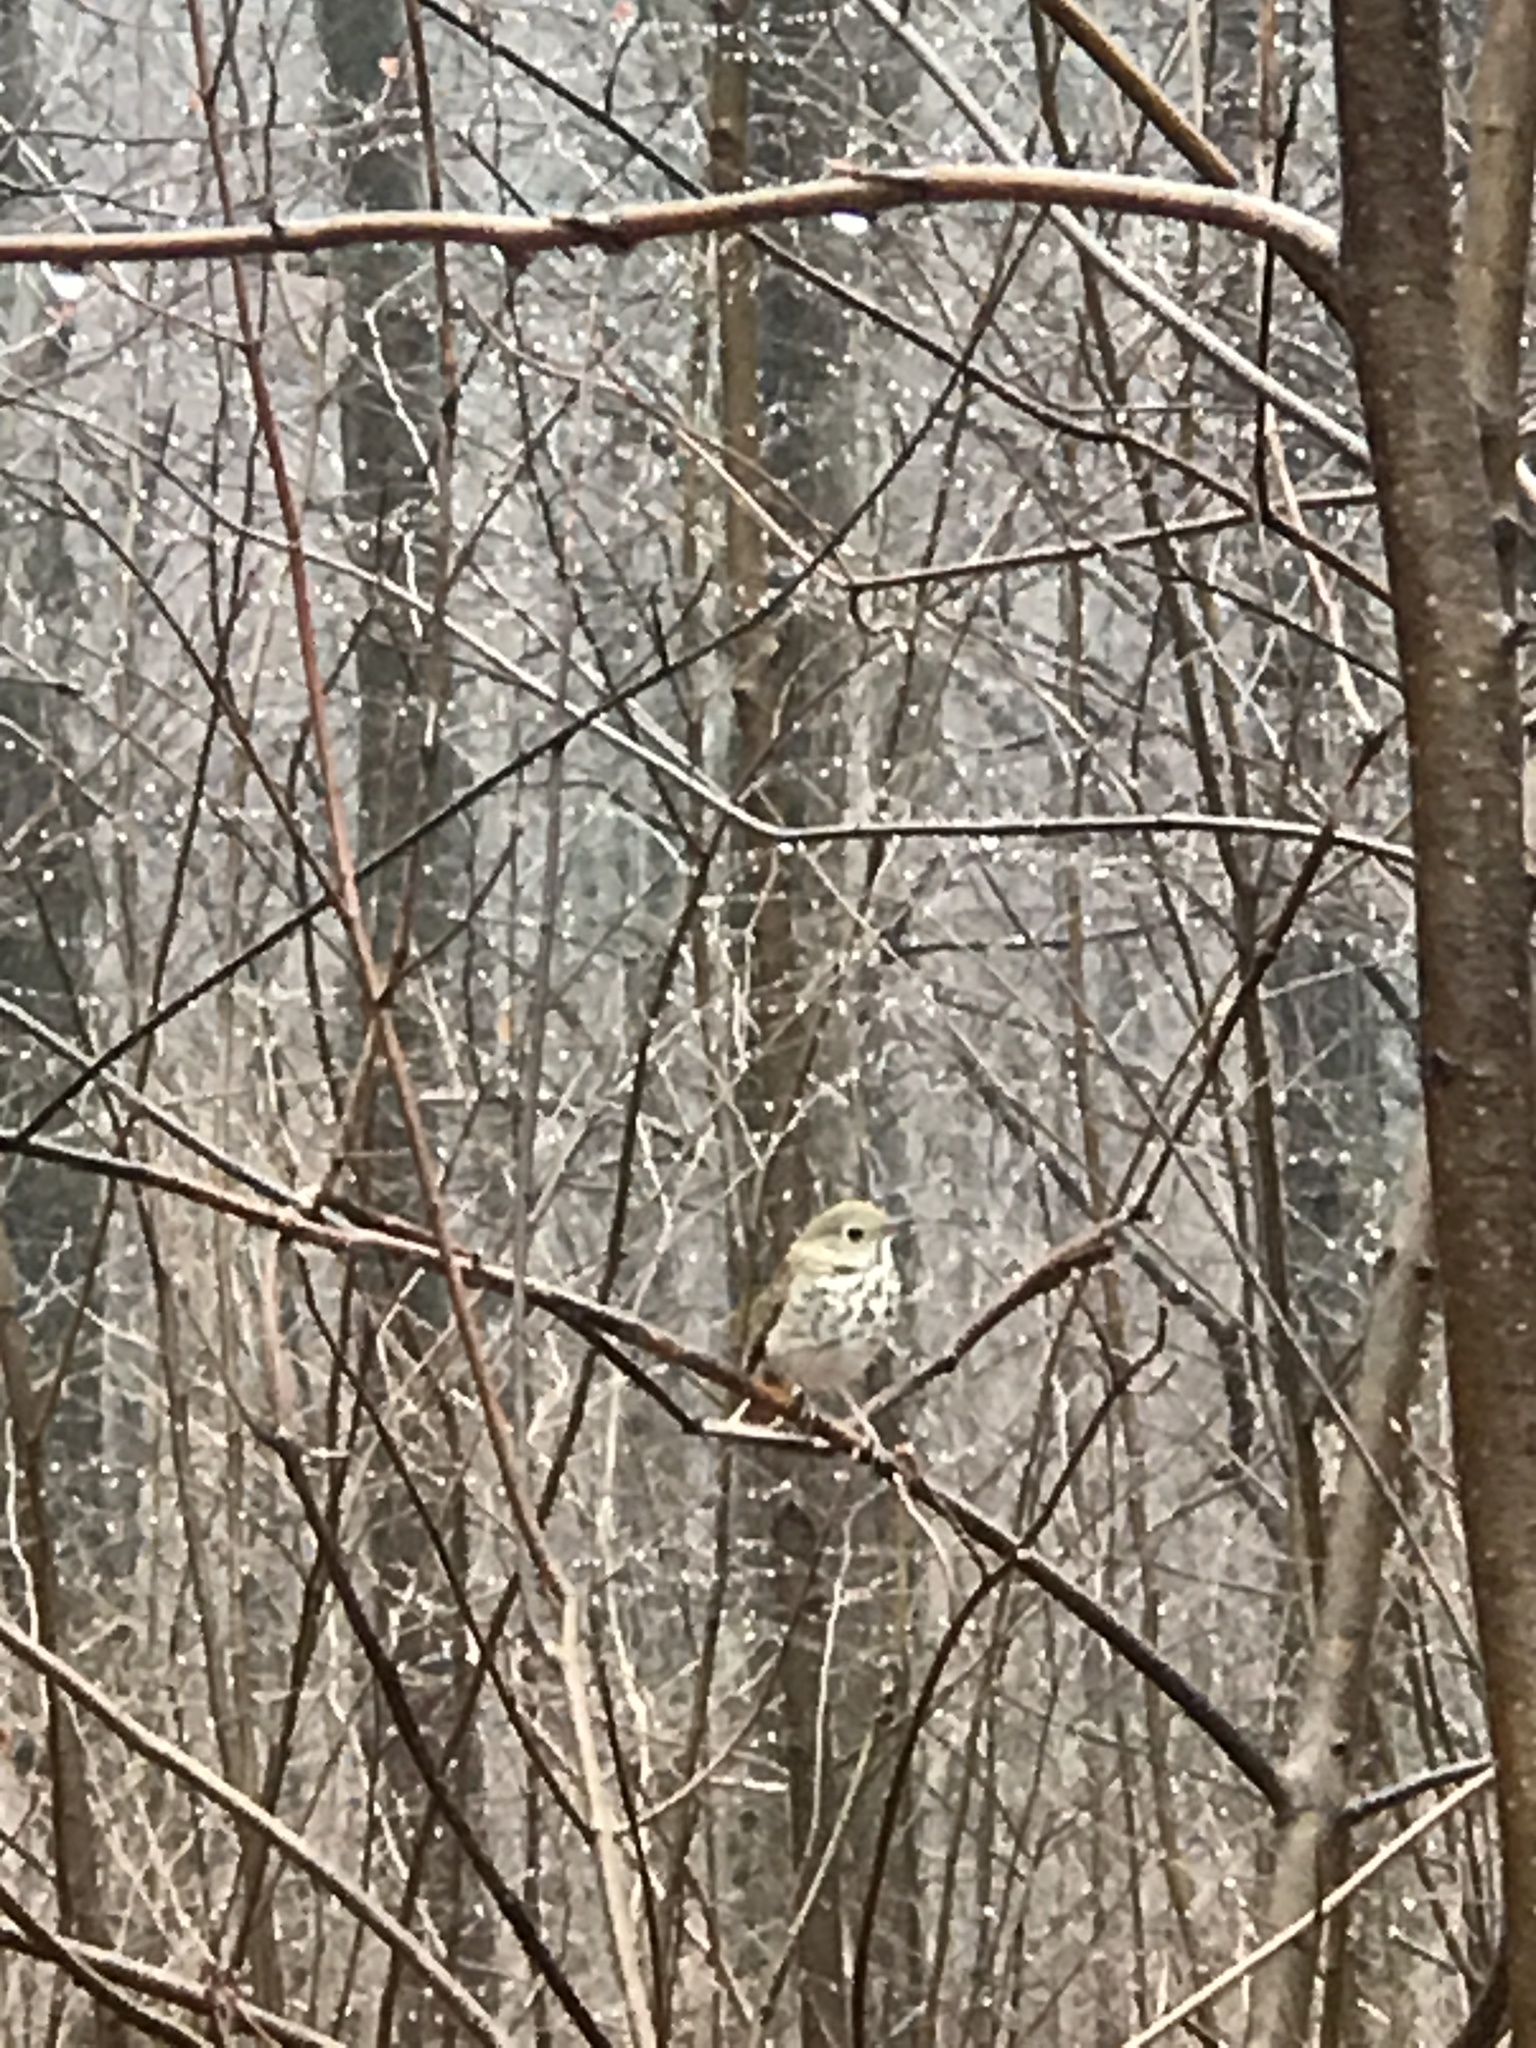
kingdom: Animalia
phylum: Chordata
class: Aves
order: Passeriformes
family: Turdidae
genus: Catharus
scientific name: Catharus guttatus
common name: Hermit thrush
